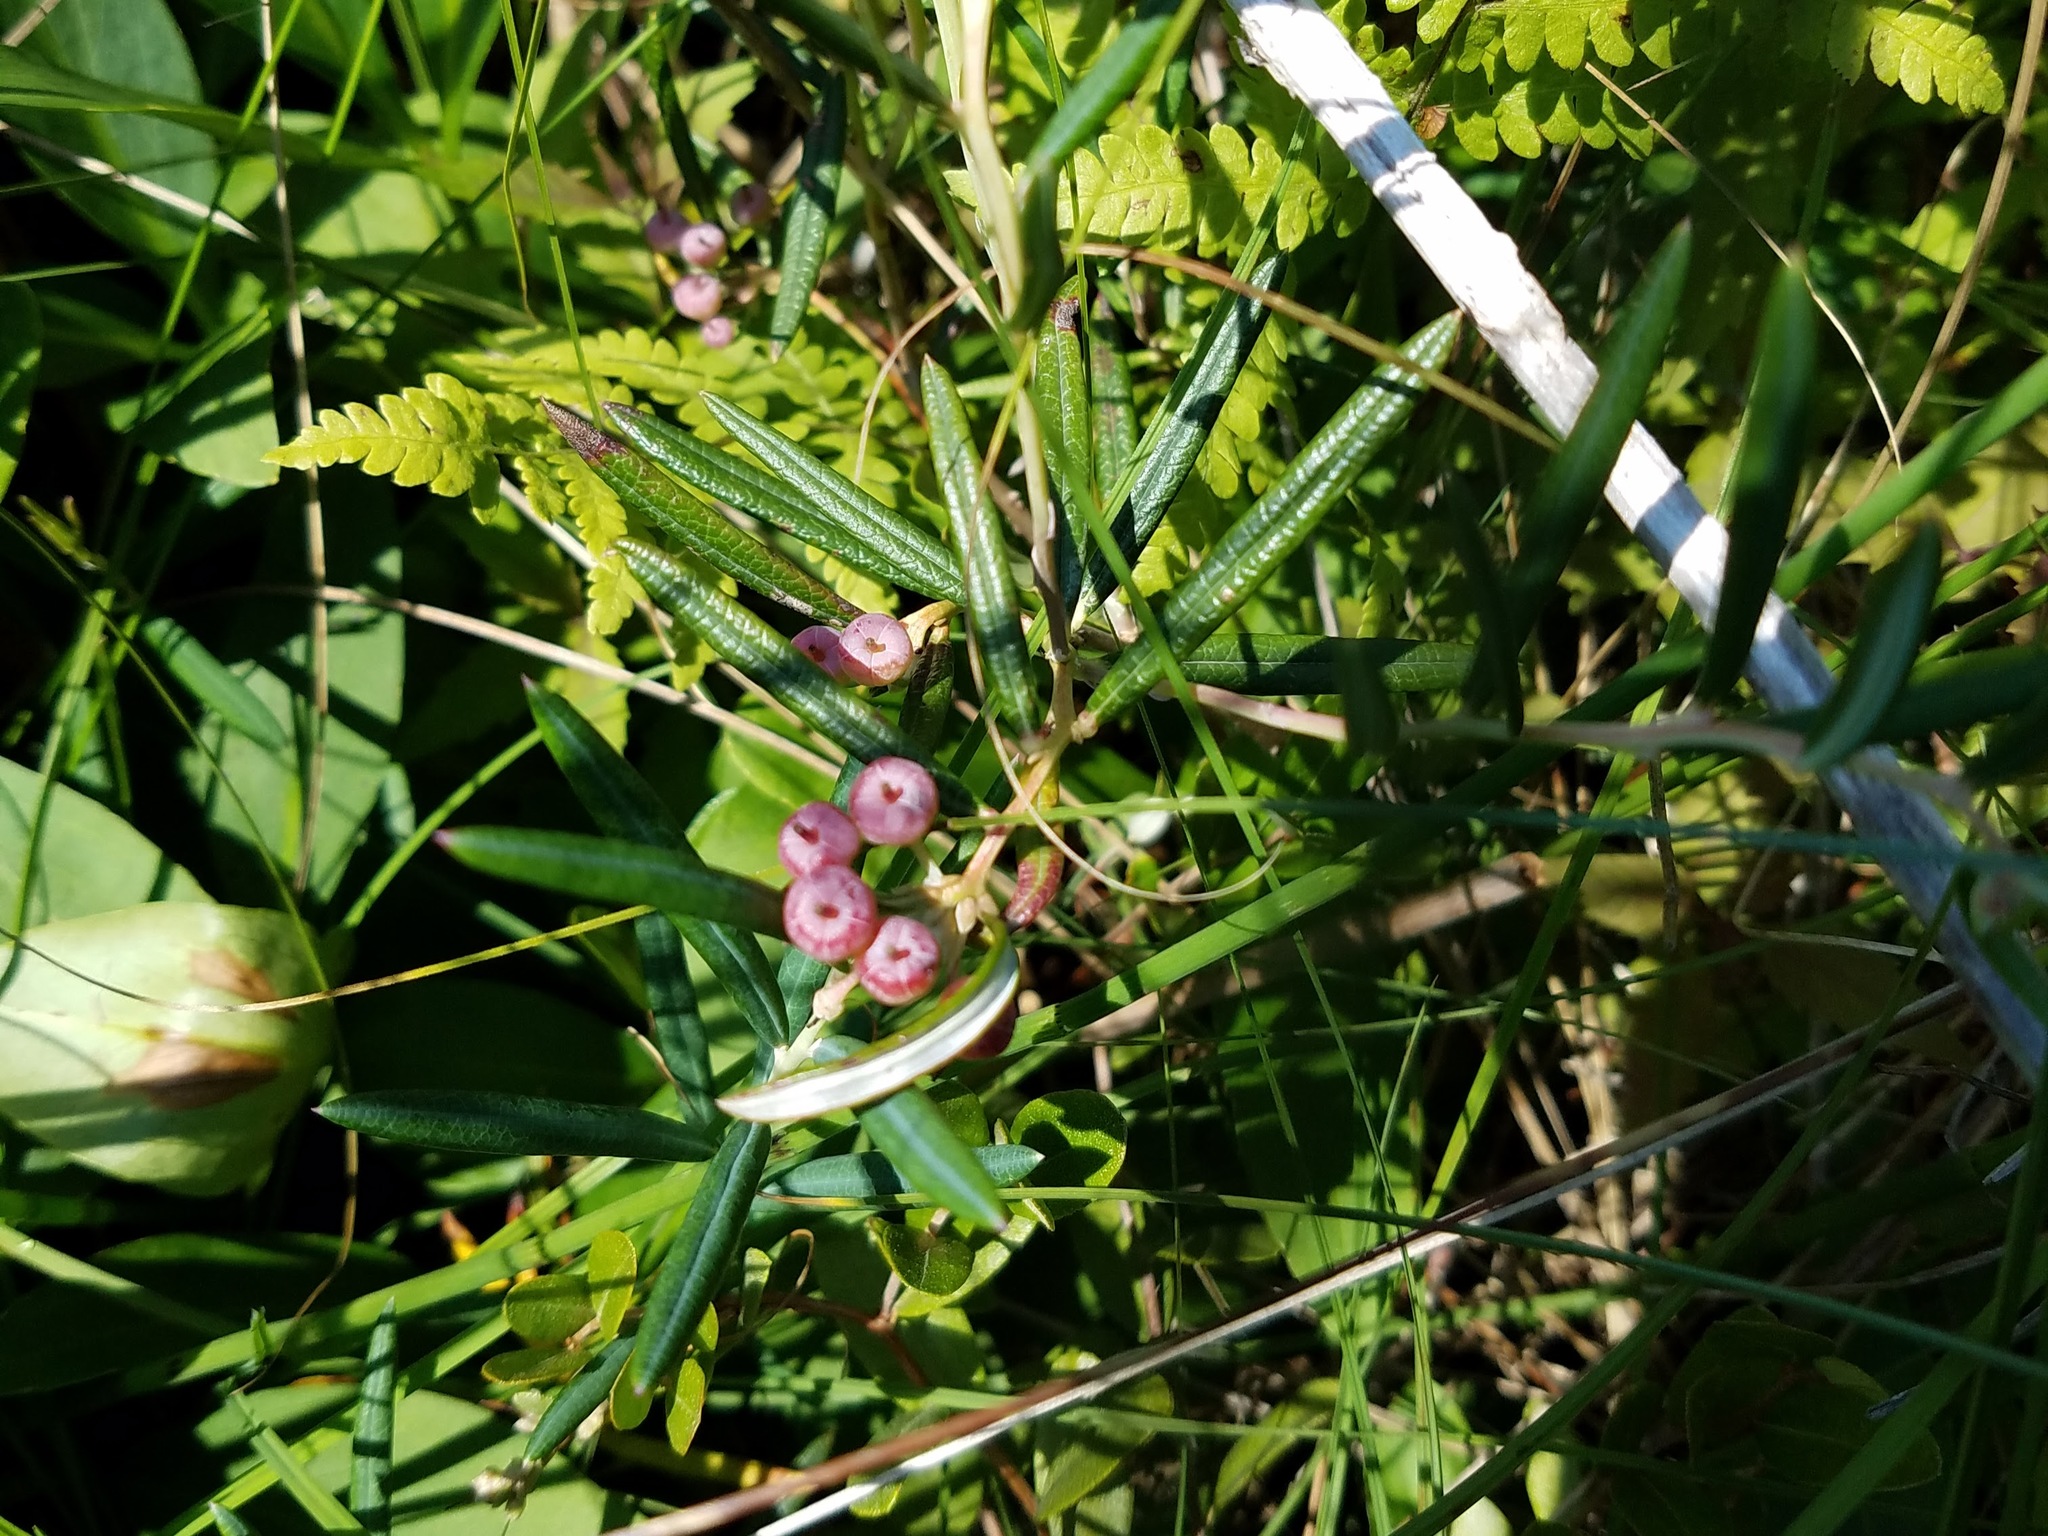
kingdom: Plantae
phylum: Tracheophyta
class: Magnoliopsida
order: Ericales
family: Ericaceae
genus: Andromeda
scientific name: Andromeda polifolia
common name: Bog-rosemary
